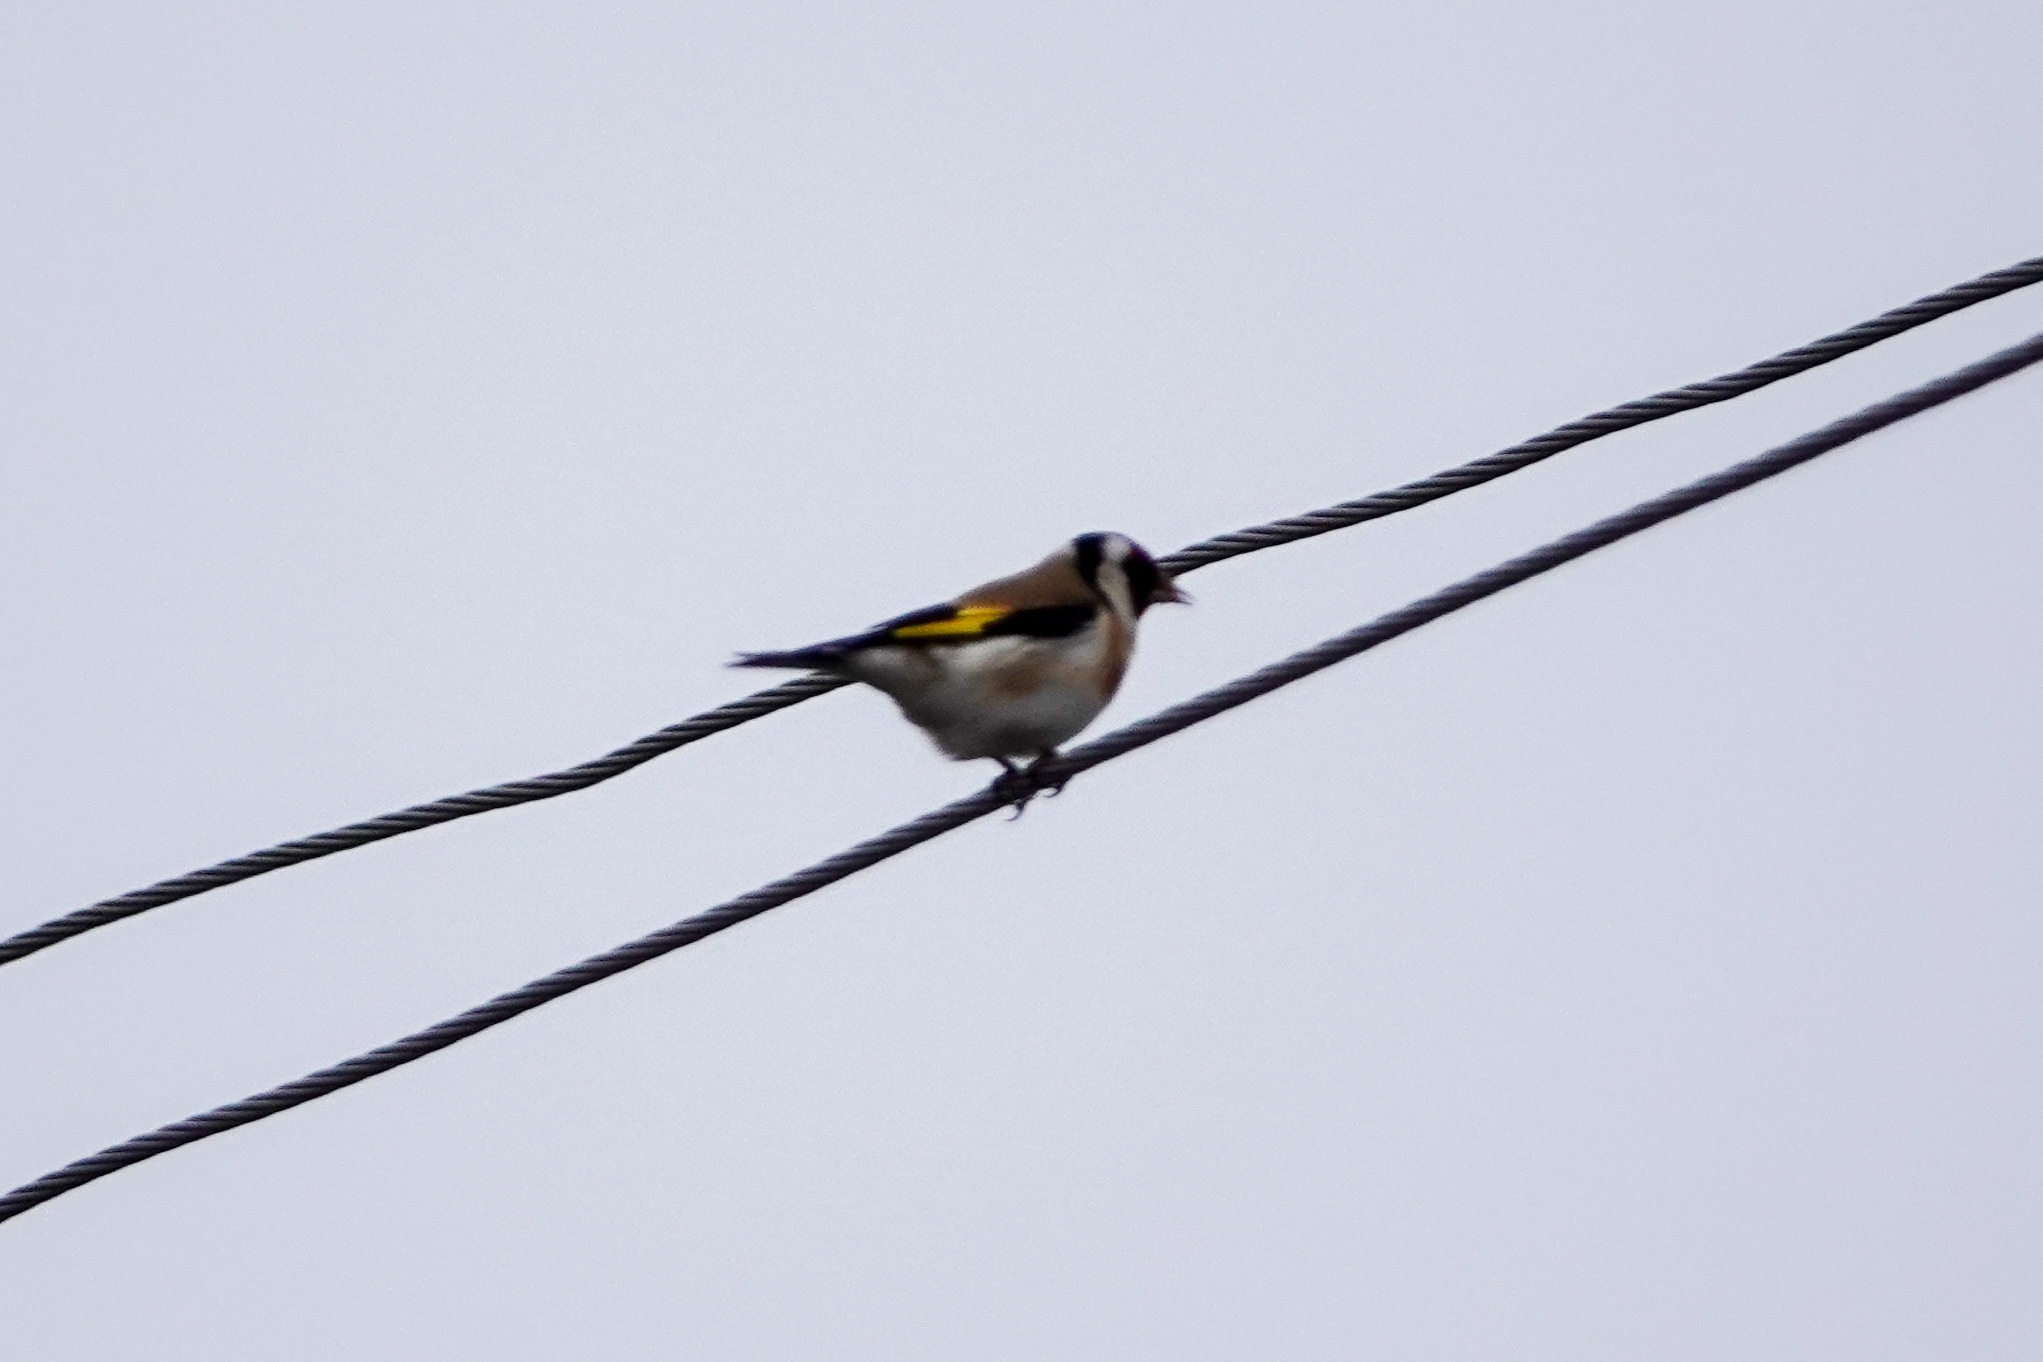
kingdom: Animalia
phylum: Chordata
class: Aves
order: Passeriformes
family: Fringillidae
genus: Carduelis
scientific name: Carduelis carduelis
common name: European goldfinch
